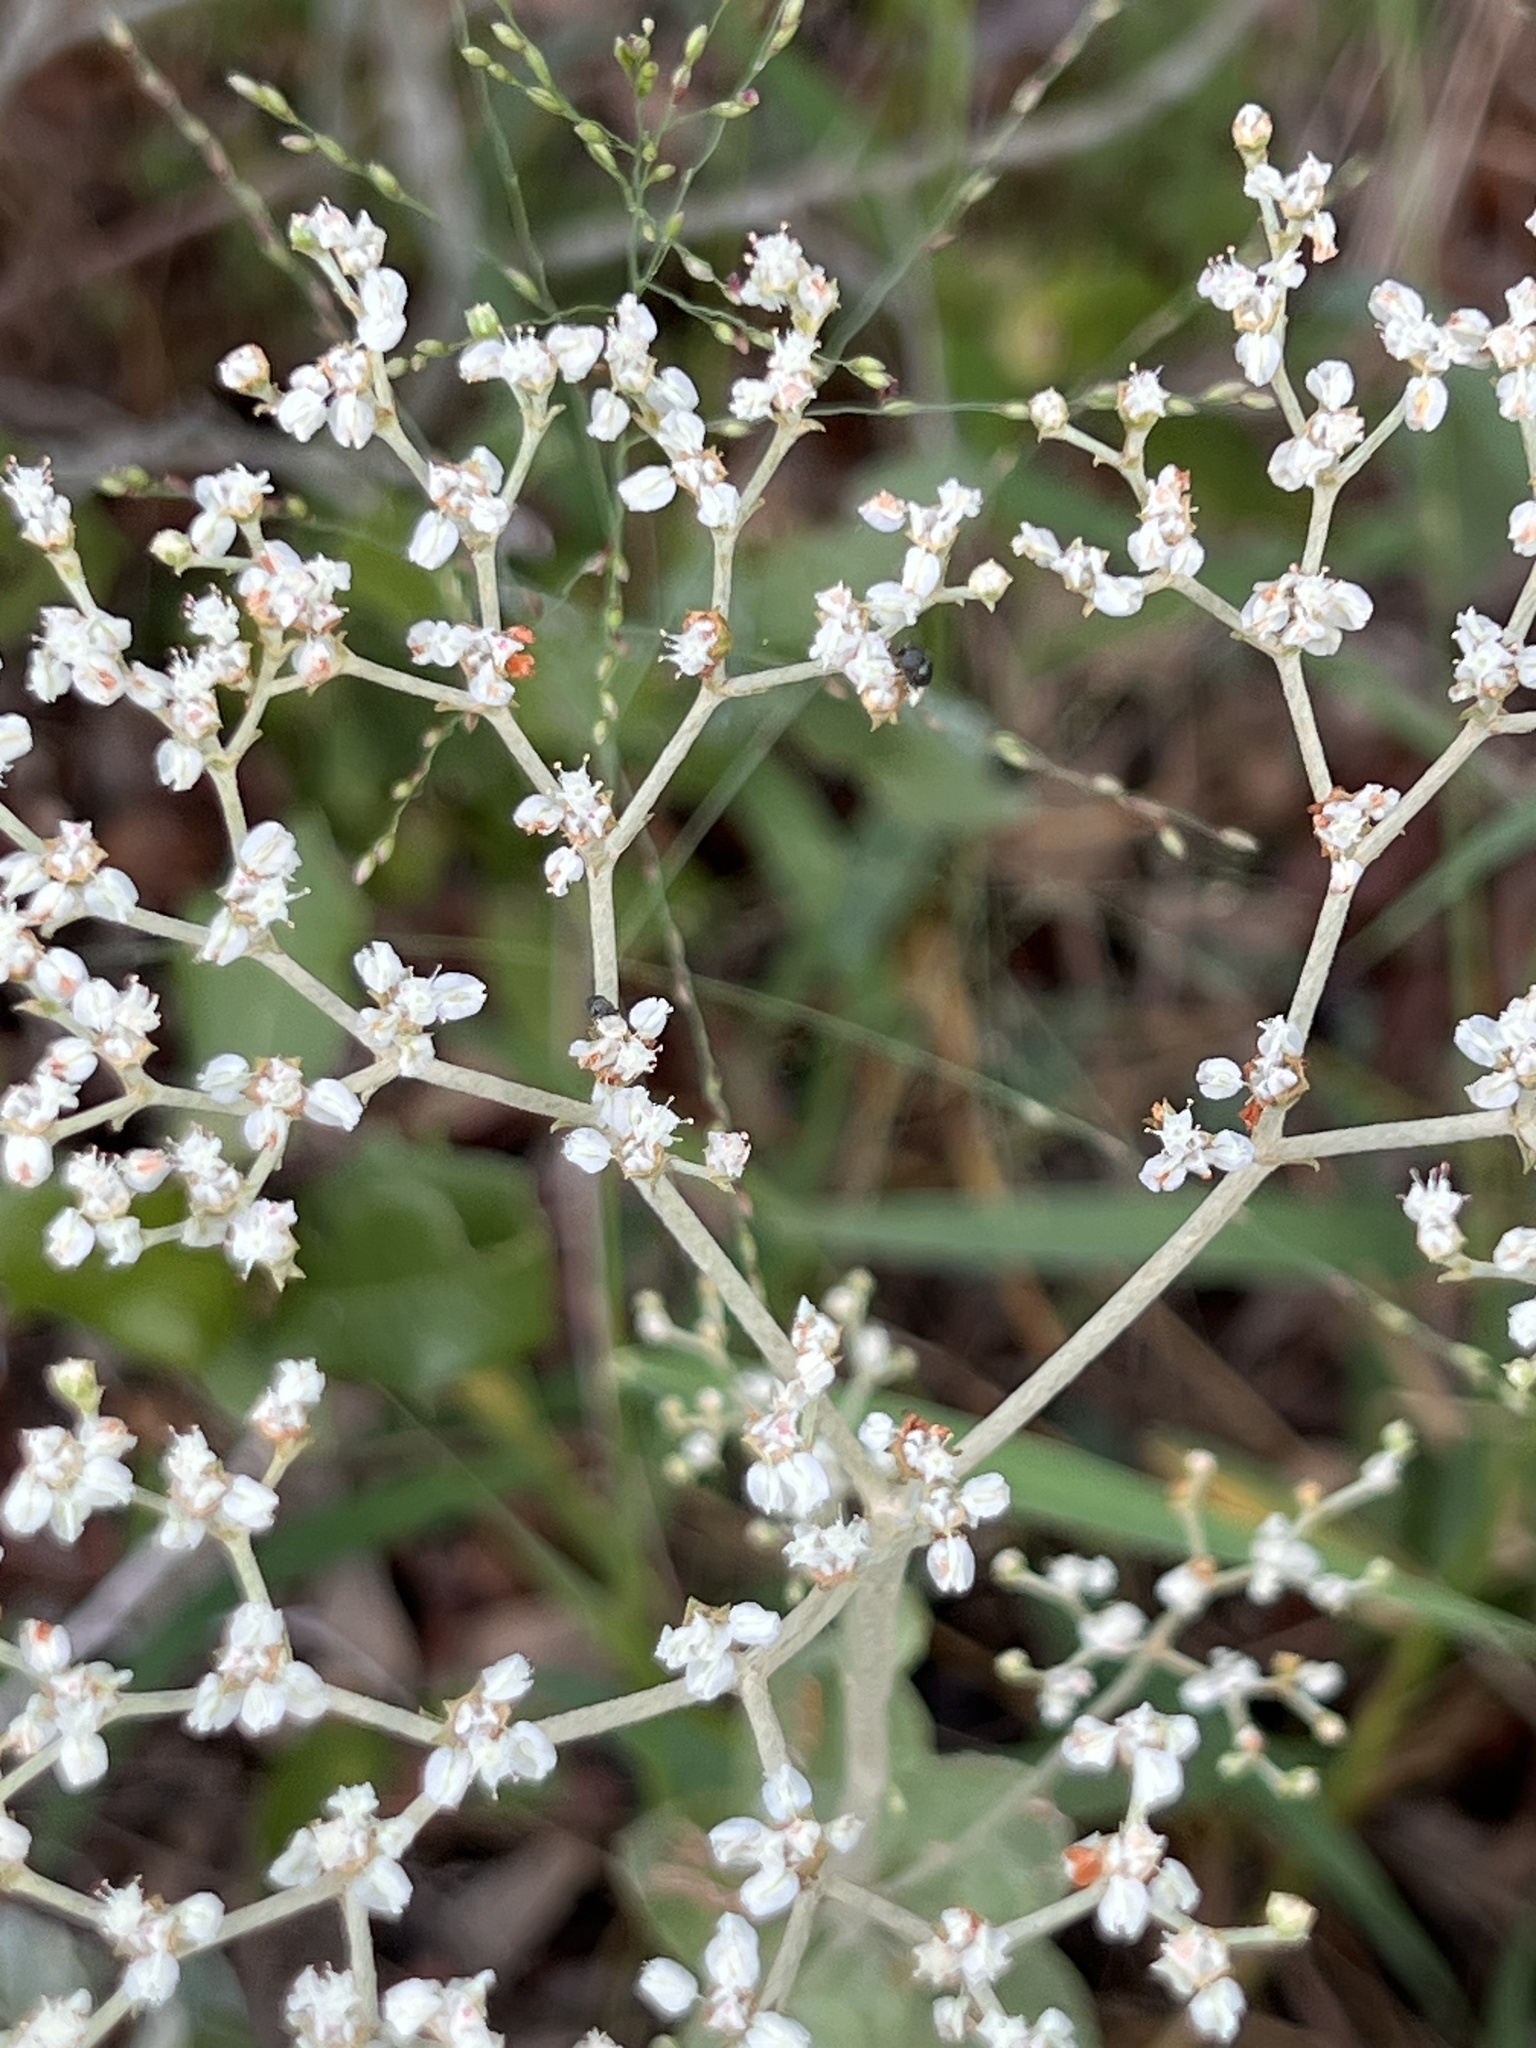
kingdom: Plantae
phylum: Tracheophyta
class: Magnoliopsida
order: Caryophyllales
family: Polygonaceae
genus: Eriogonum
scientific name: Eriogonum multiflorum
